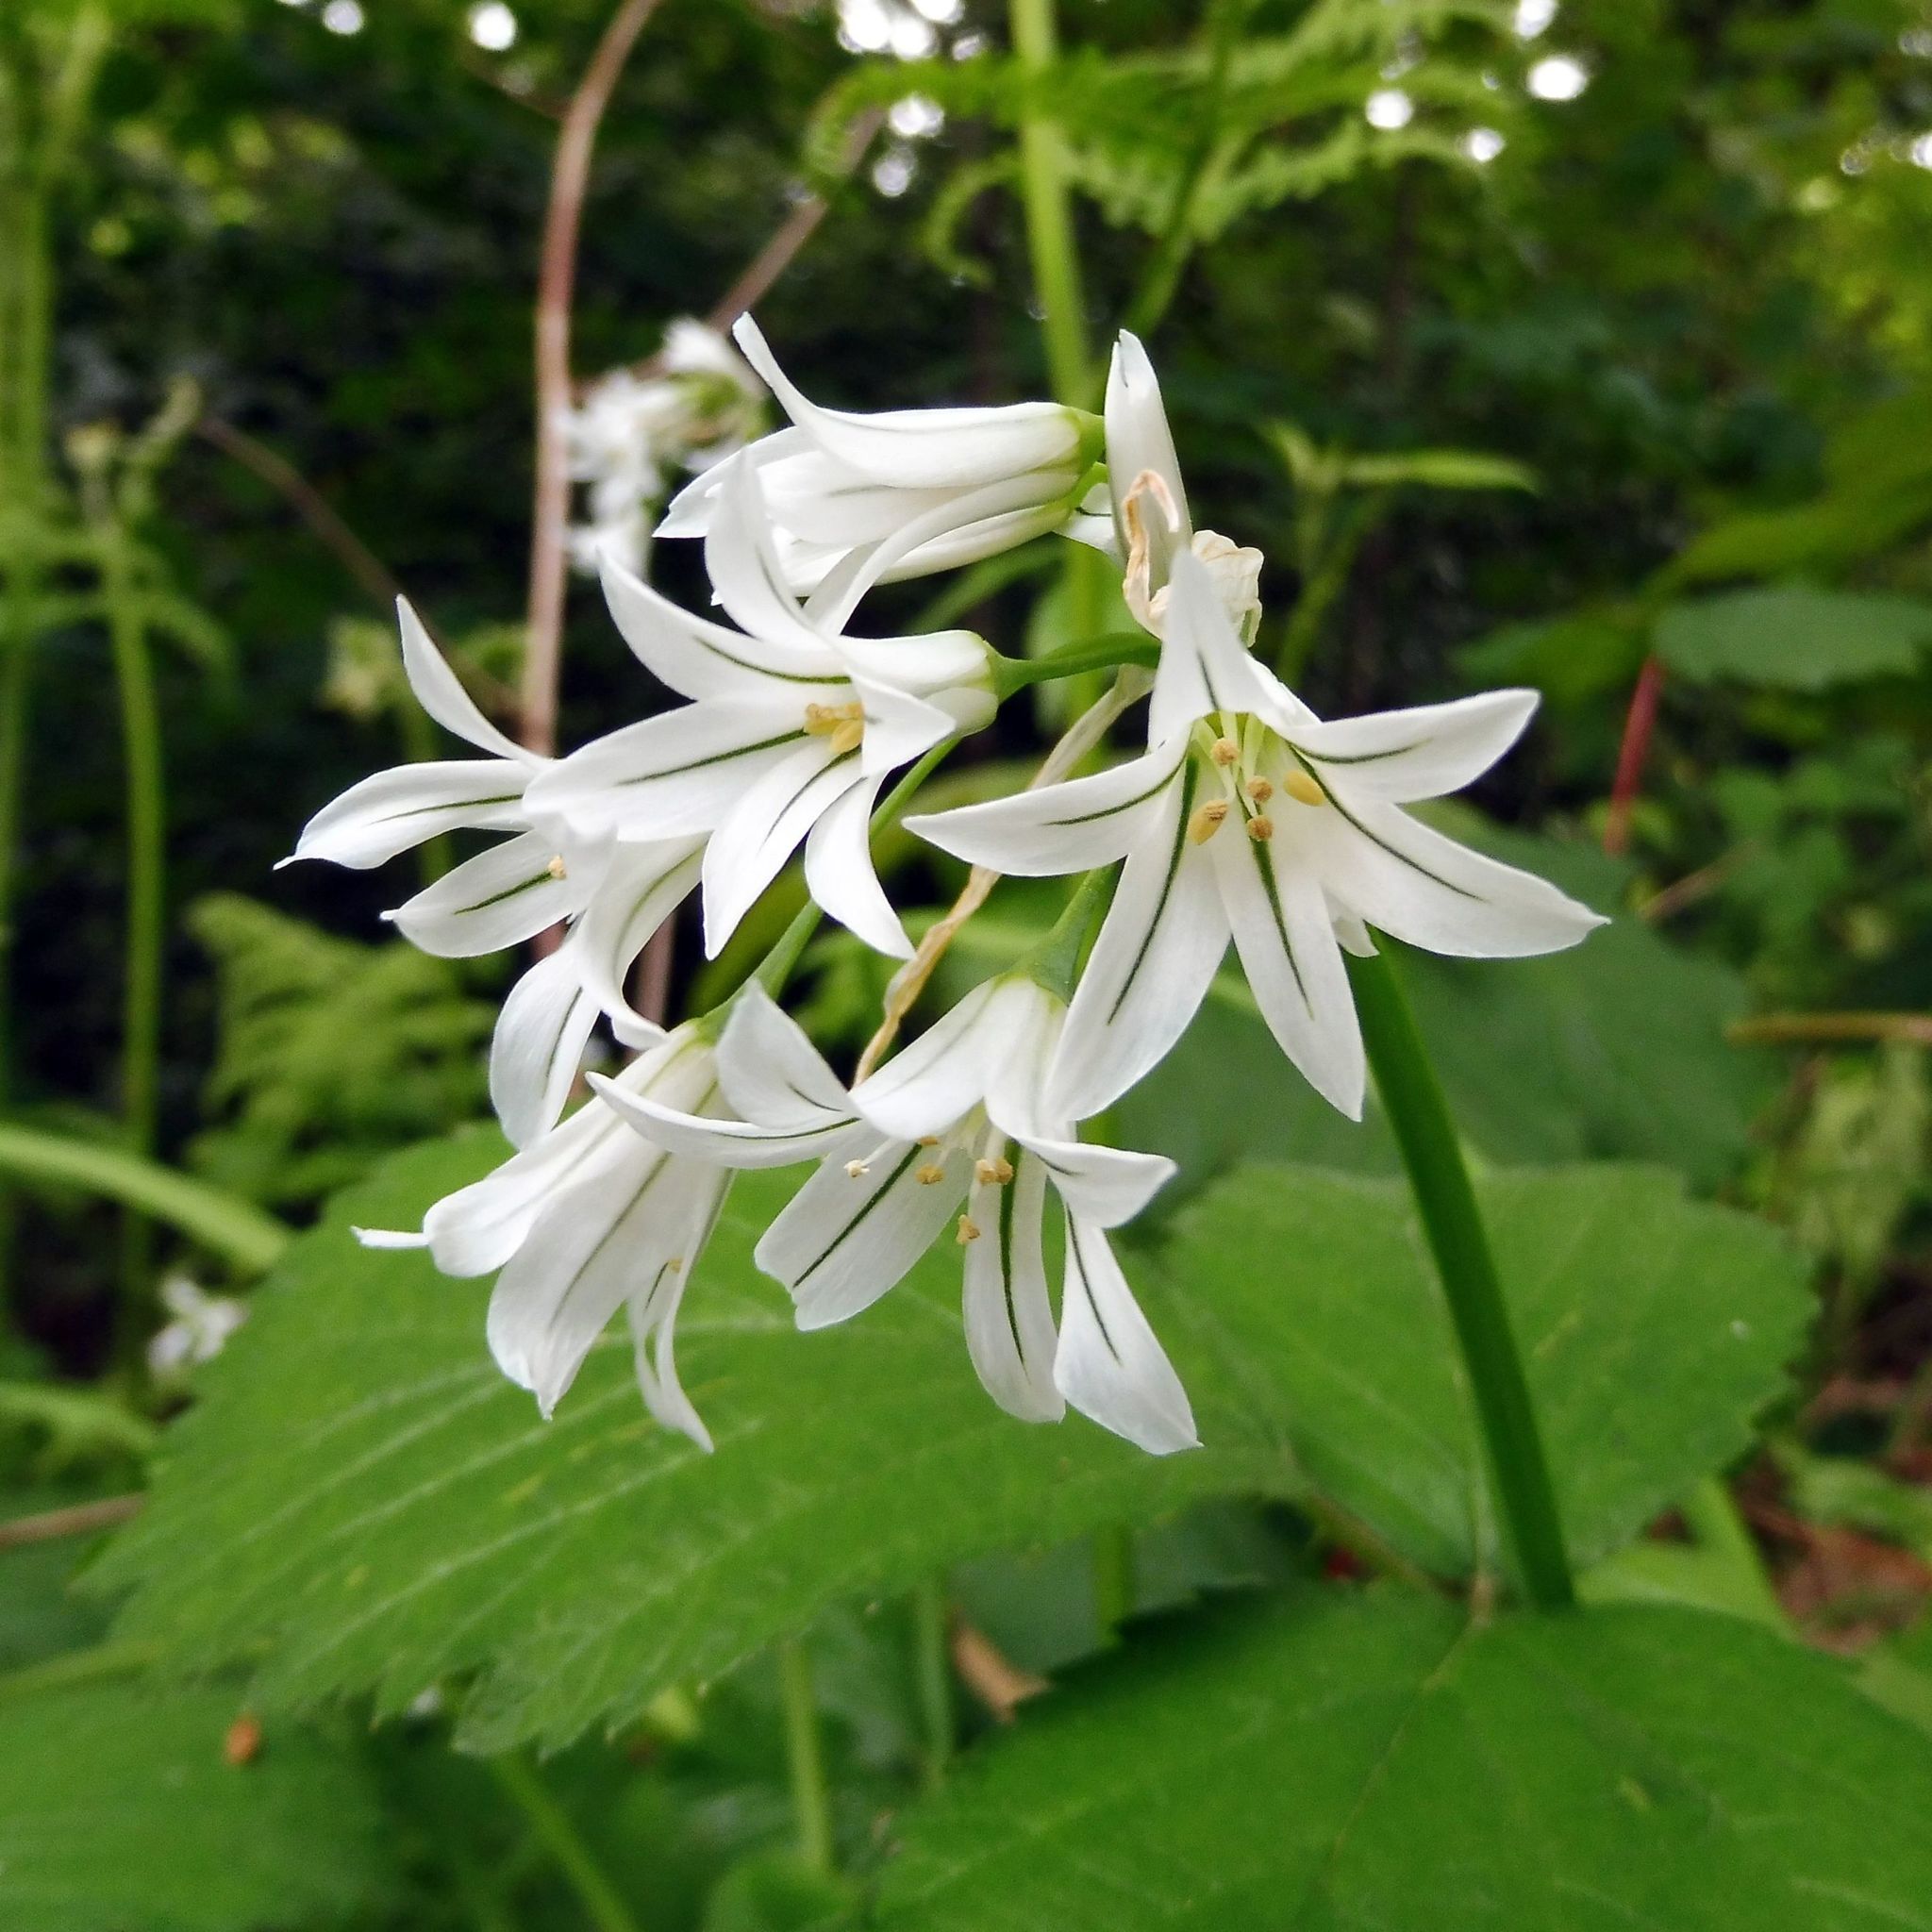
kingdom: Plantae
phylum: Tracheophyta
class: Liliopsida
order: Asparagales
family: Amaryllidaceae
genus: Allium
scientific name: Allium triquetrum
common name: Three-cornered garlic
